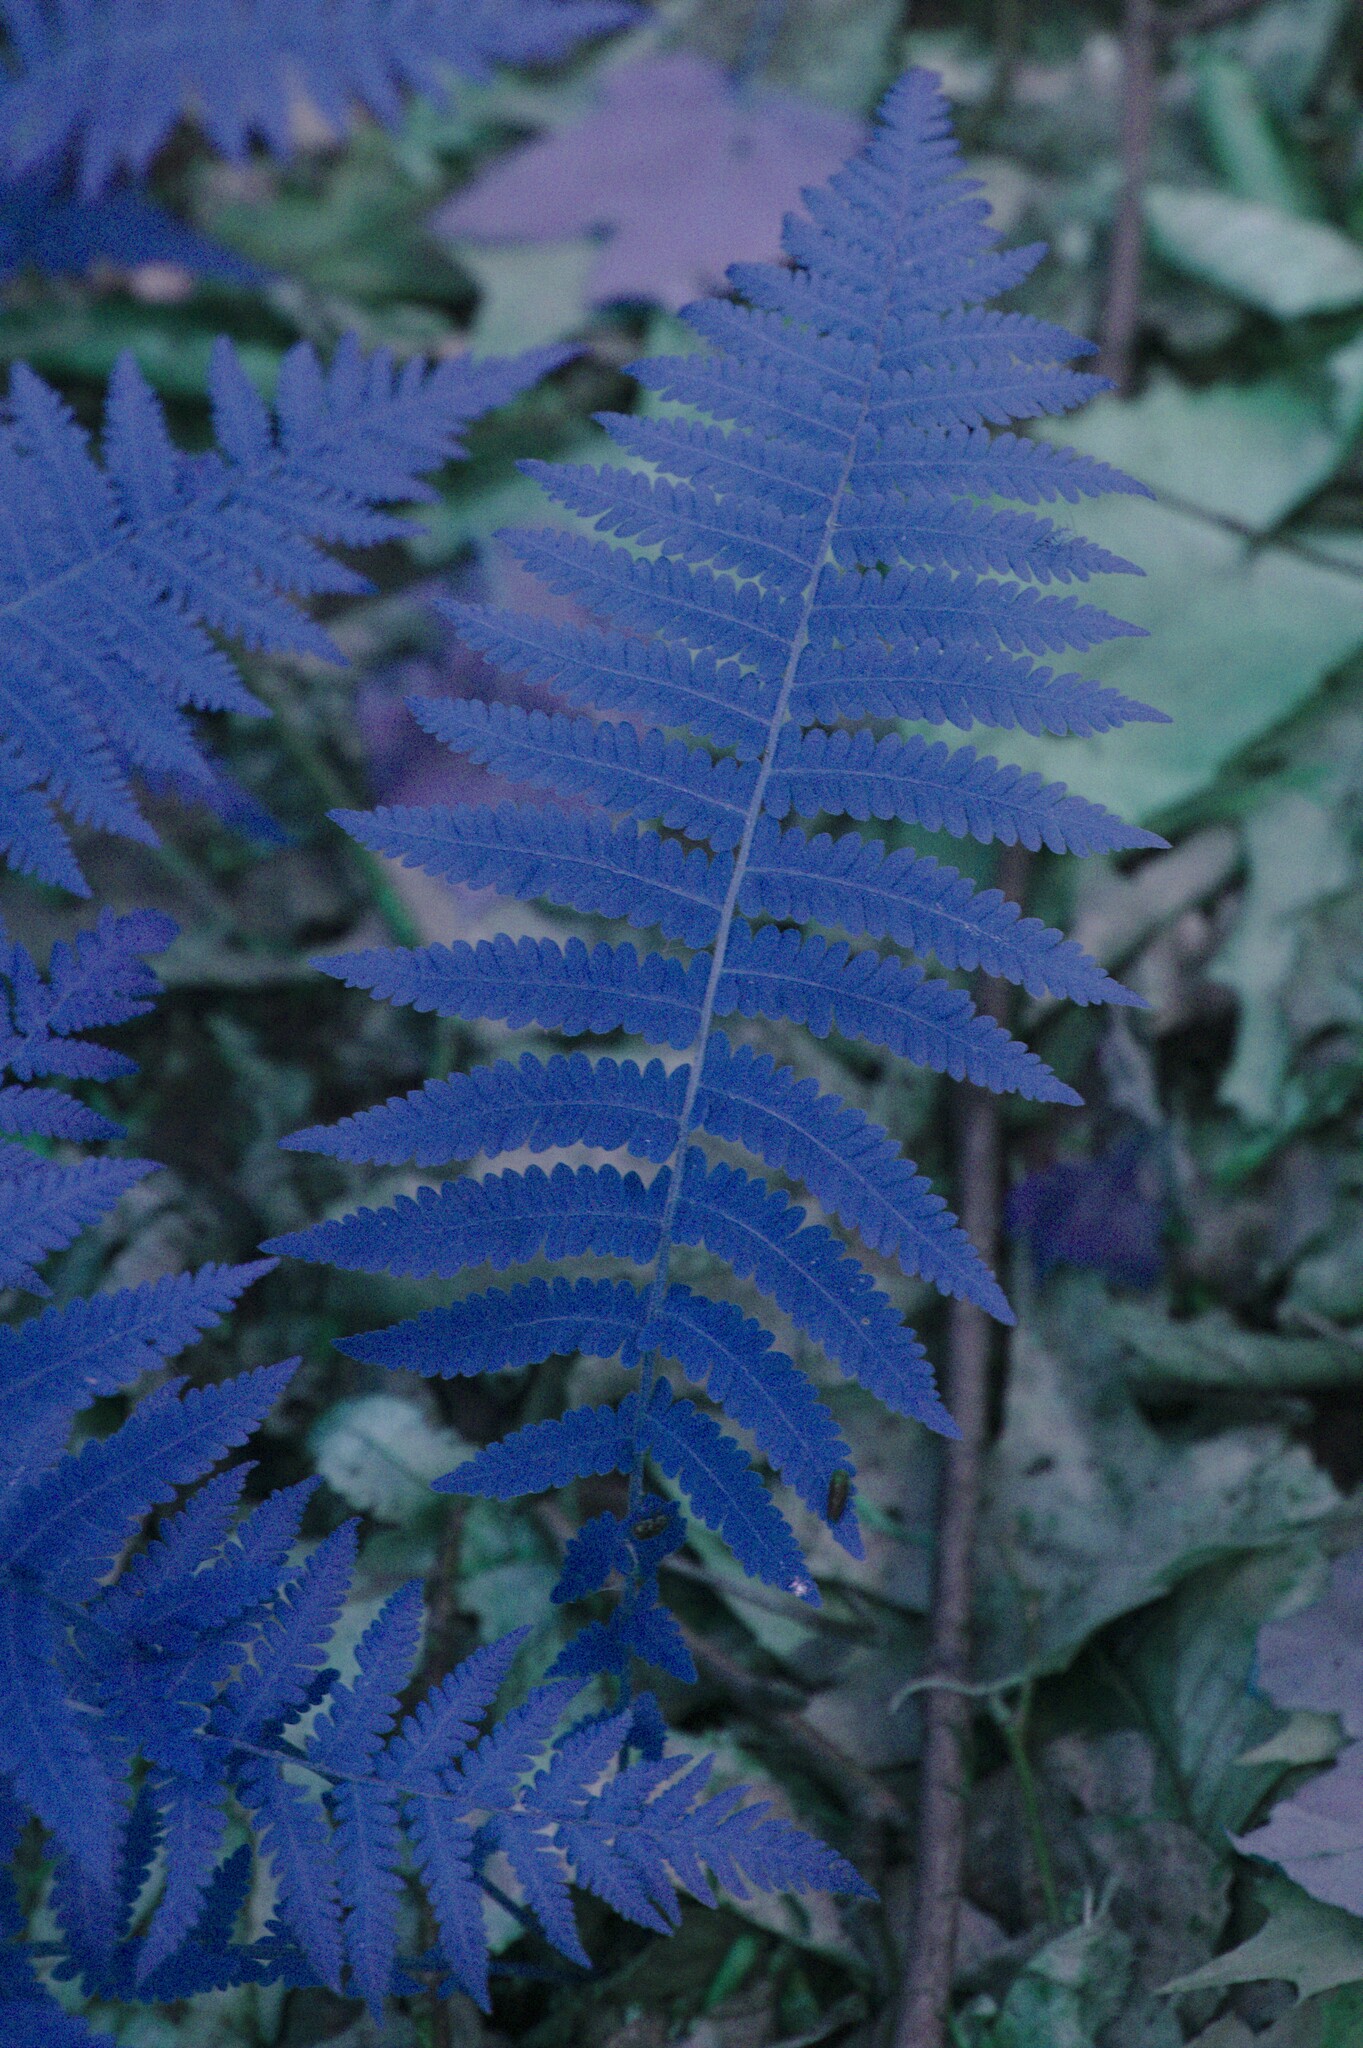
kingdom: Plantae
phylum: Tracheophyta
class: Polypodiopsida
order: Polypodiales
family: Thelypteridaceae
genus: Amauropelta
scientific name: Amauropelta noveboracensis
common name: New york fern
